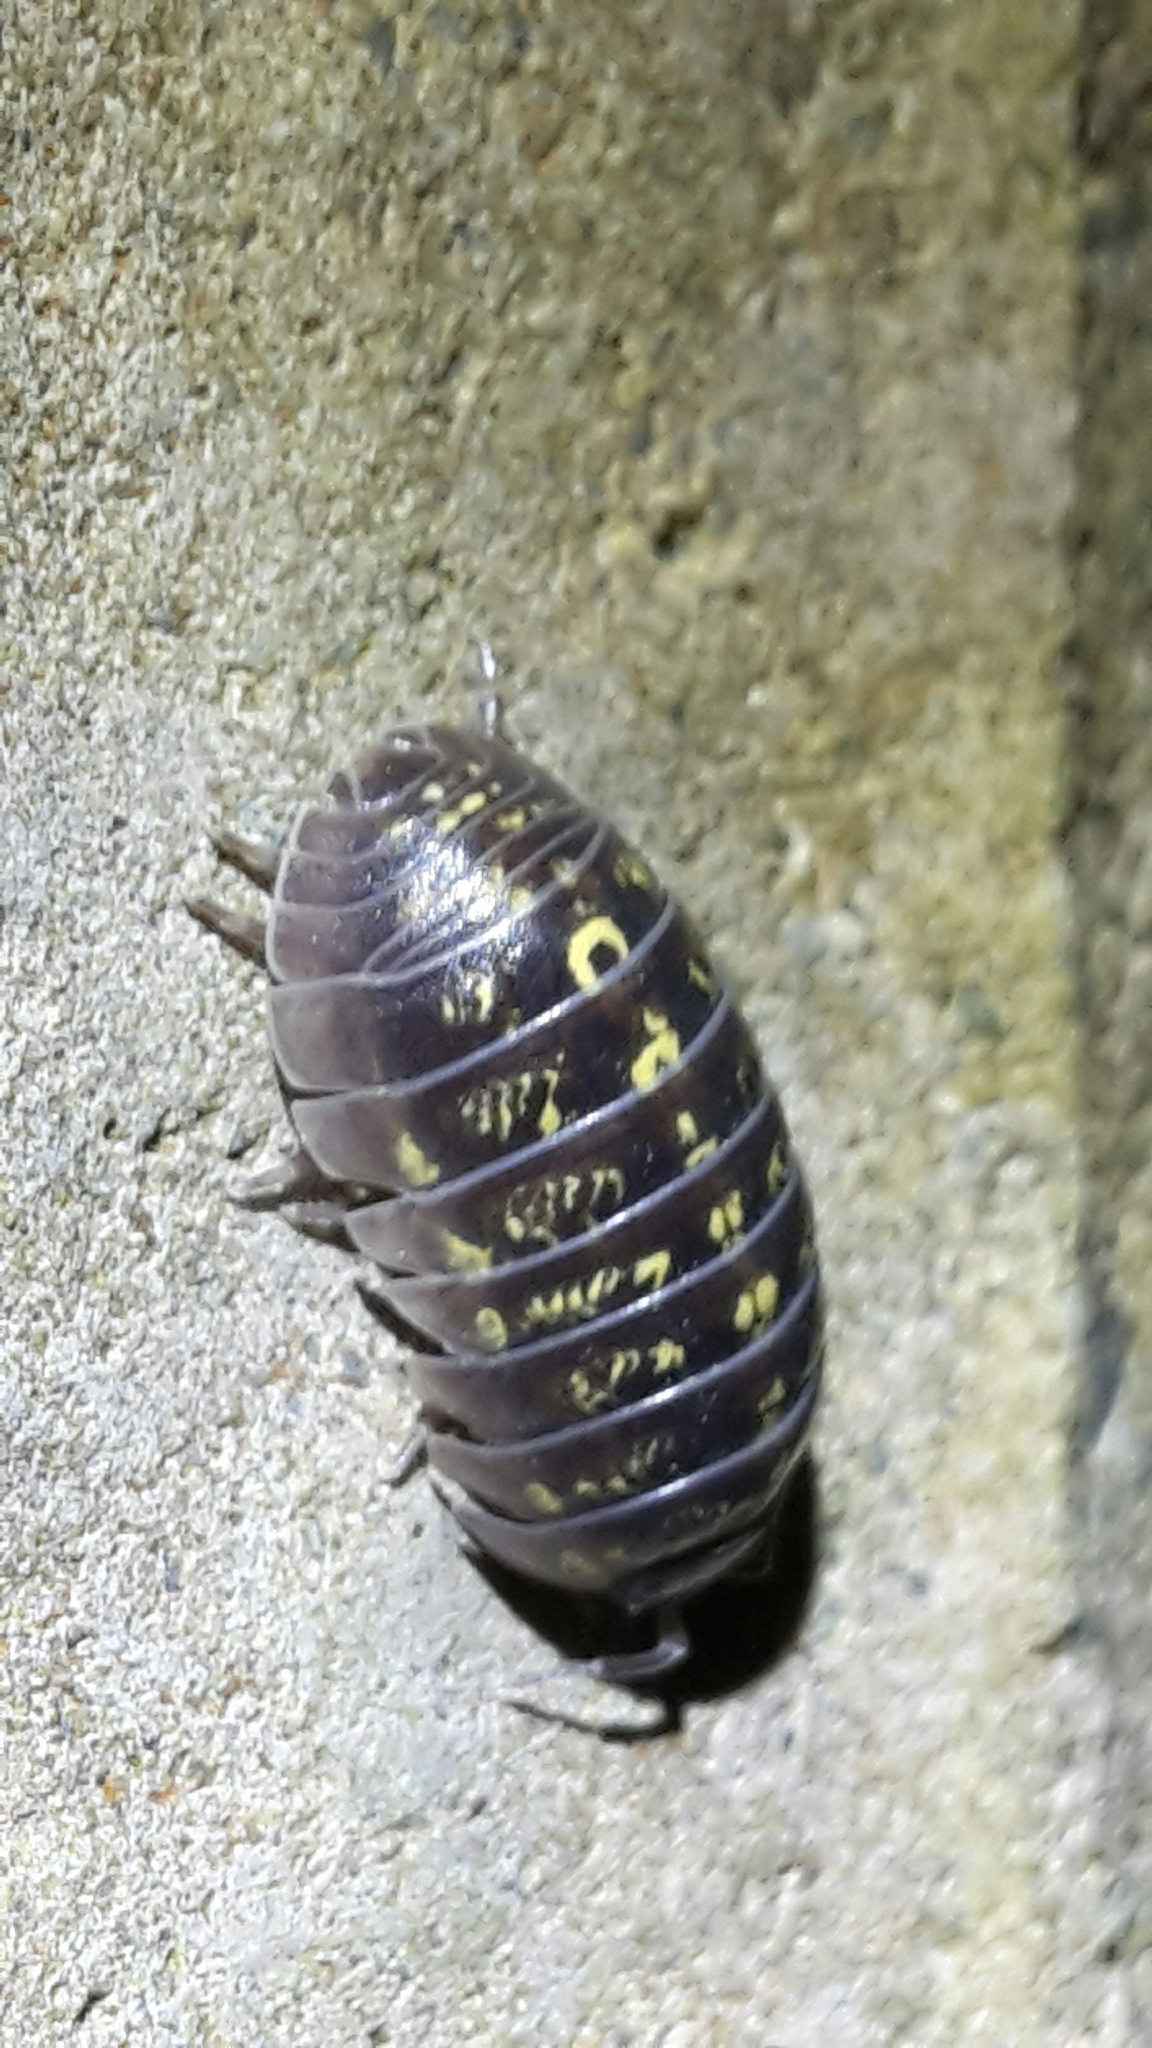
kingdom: Animalia
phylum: Arthropoda
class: Malacostraca
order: Isopoda
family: Armadillidiidae
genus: Armadillidium
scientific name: Armadillidium vulgare
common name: Common pill woodlouse
